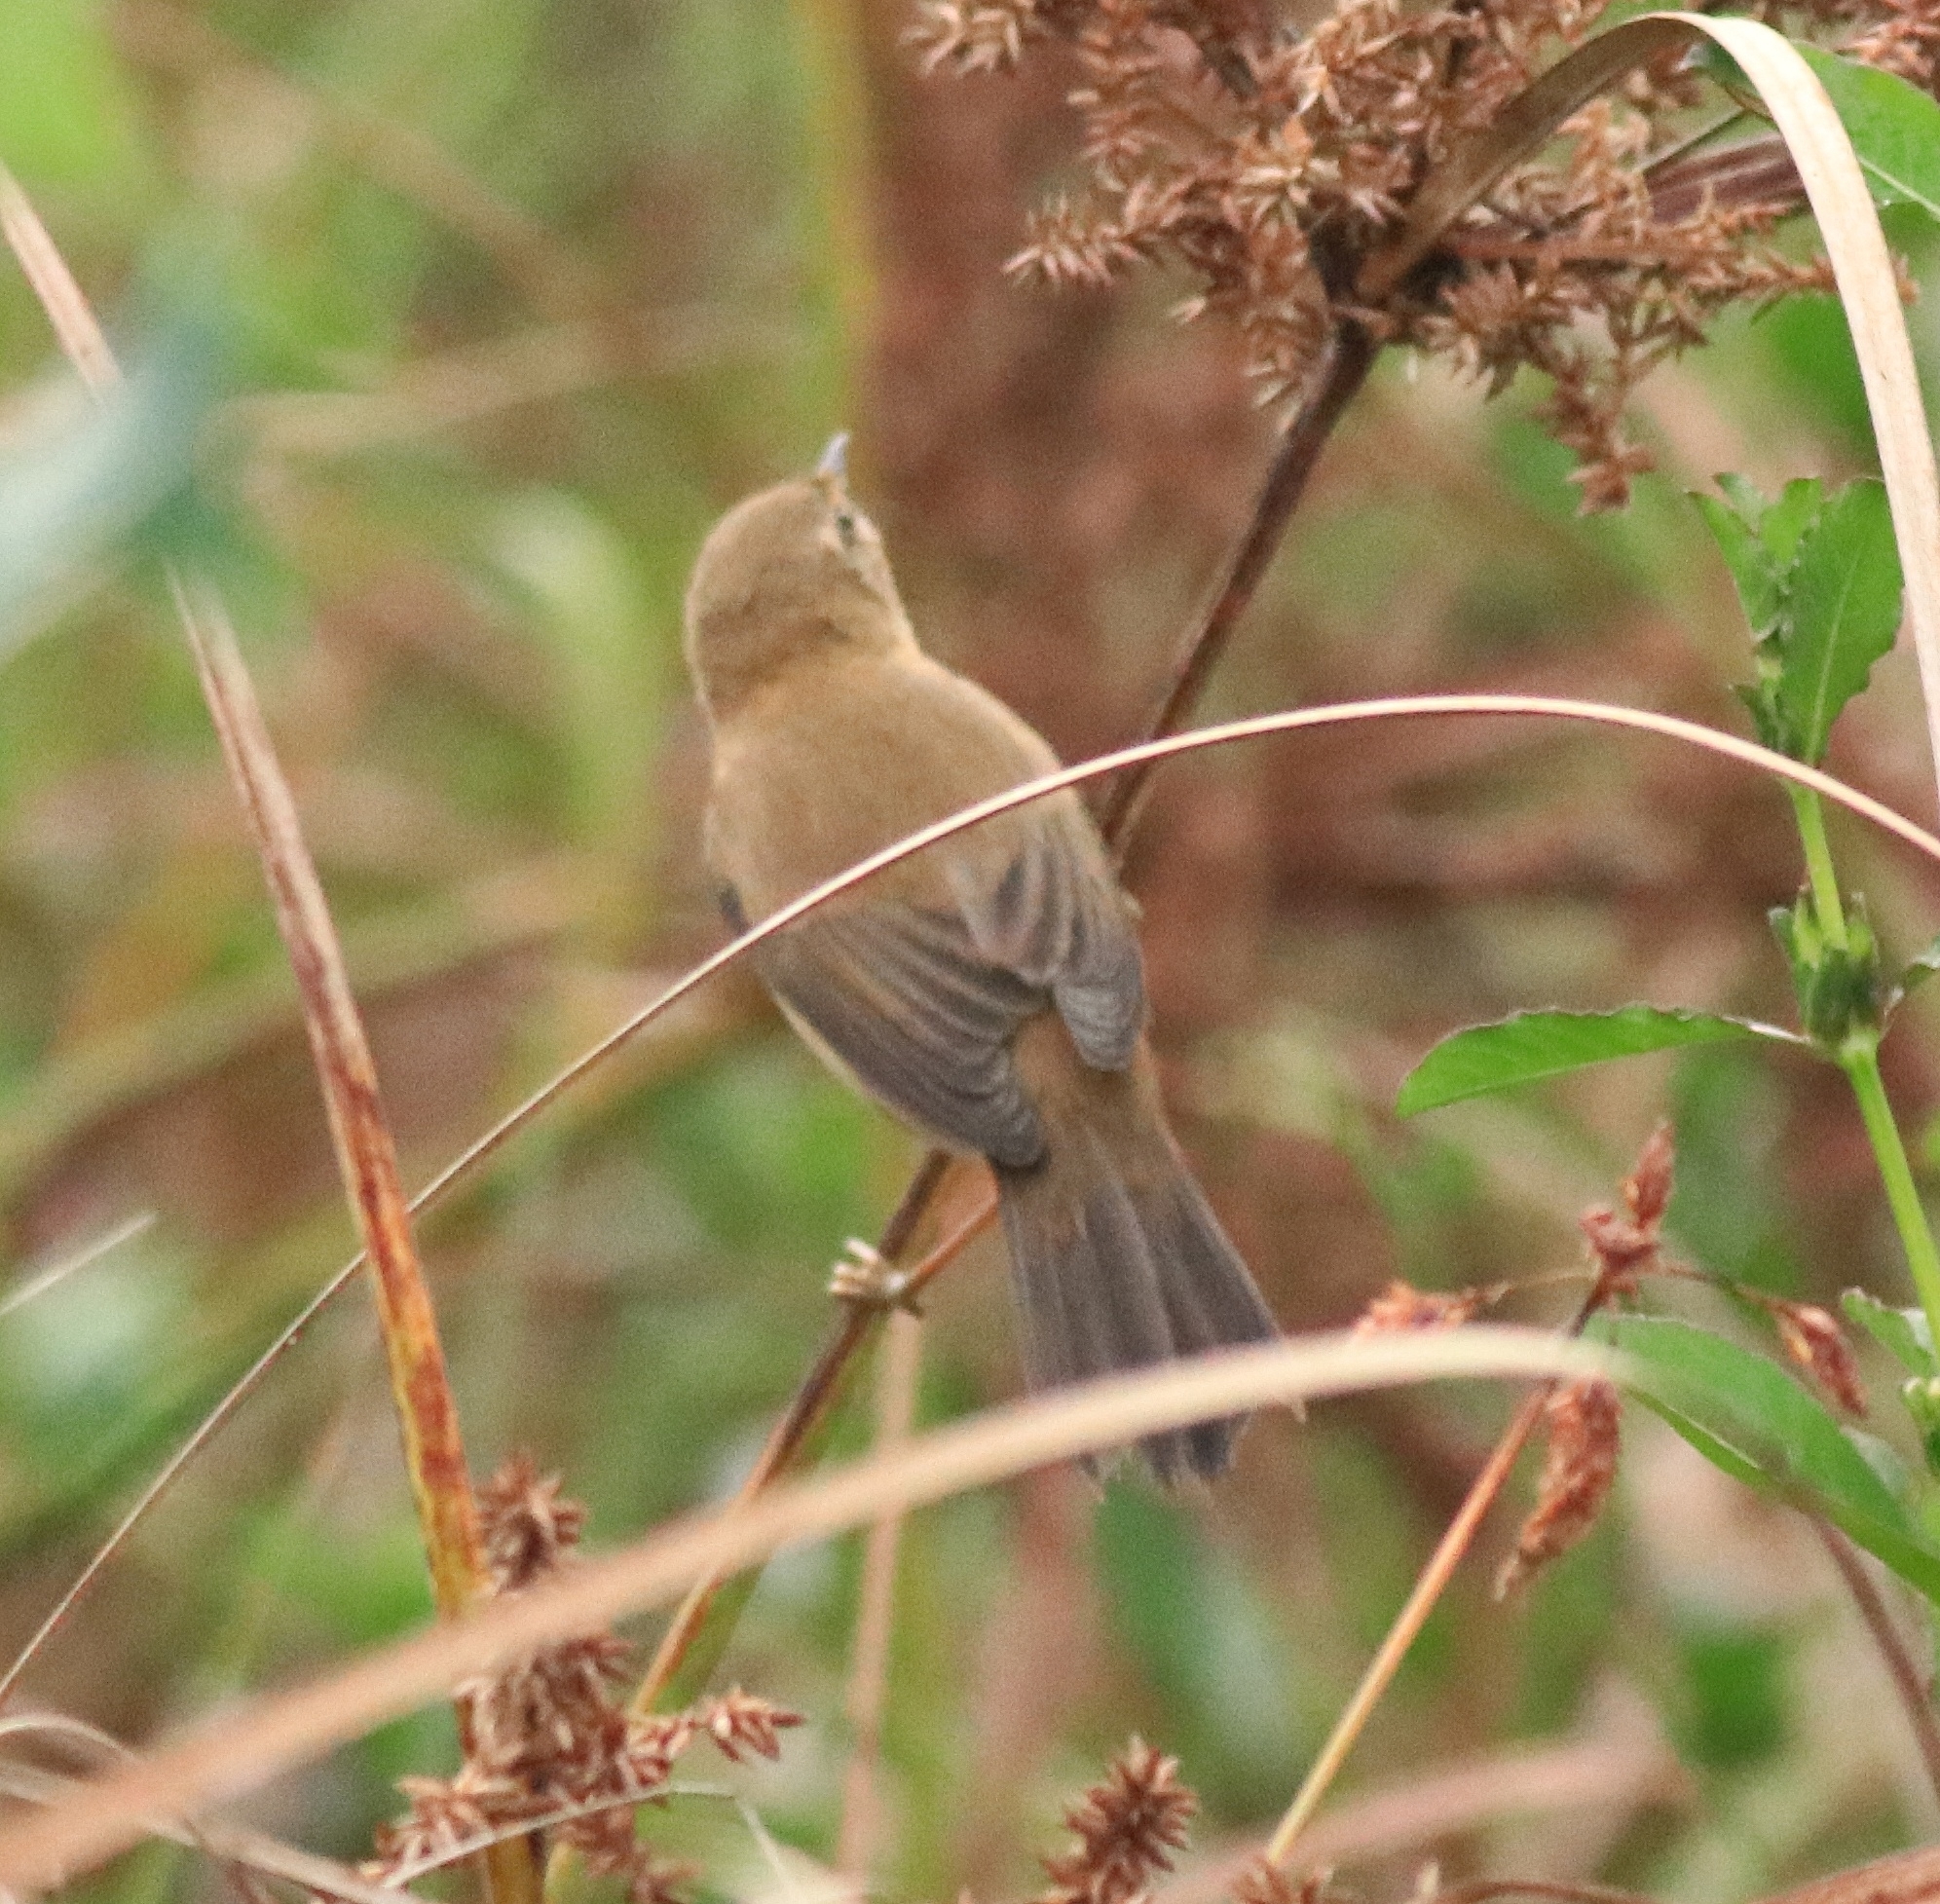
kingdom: Animalia
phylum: Chordata
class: Aves
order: Passeriformes
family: Acrocephalidae
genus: Acrocephalus
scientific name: Acrocephalus agricola
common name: Paddyfield warbler
